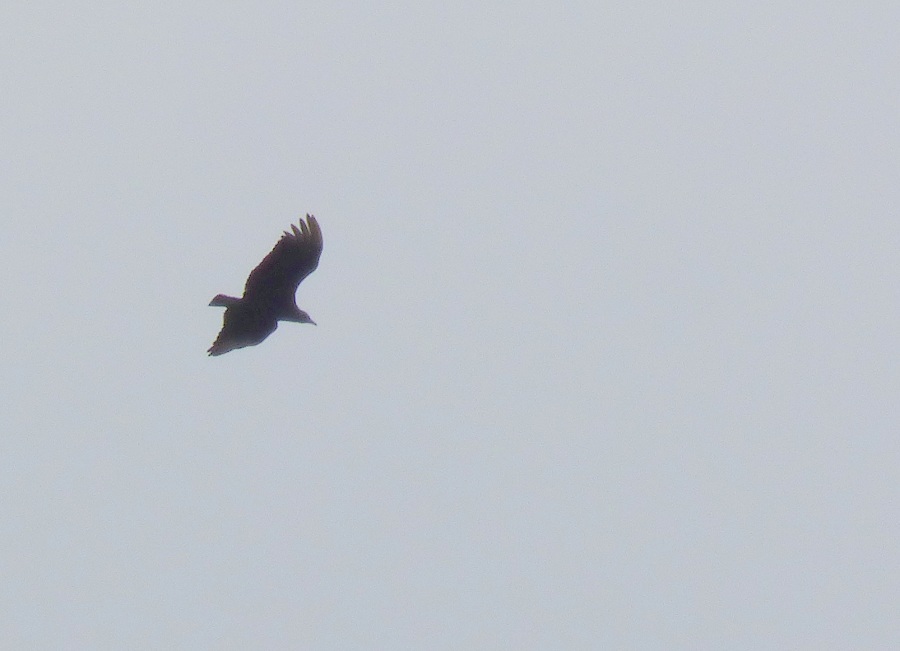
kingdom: Animalia
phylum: Chordata
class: Aves
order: Accipitriformes
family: Cathartidae
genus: Coragyps
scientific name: Coragyps atratus
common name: Black vulture
